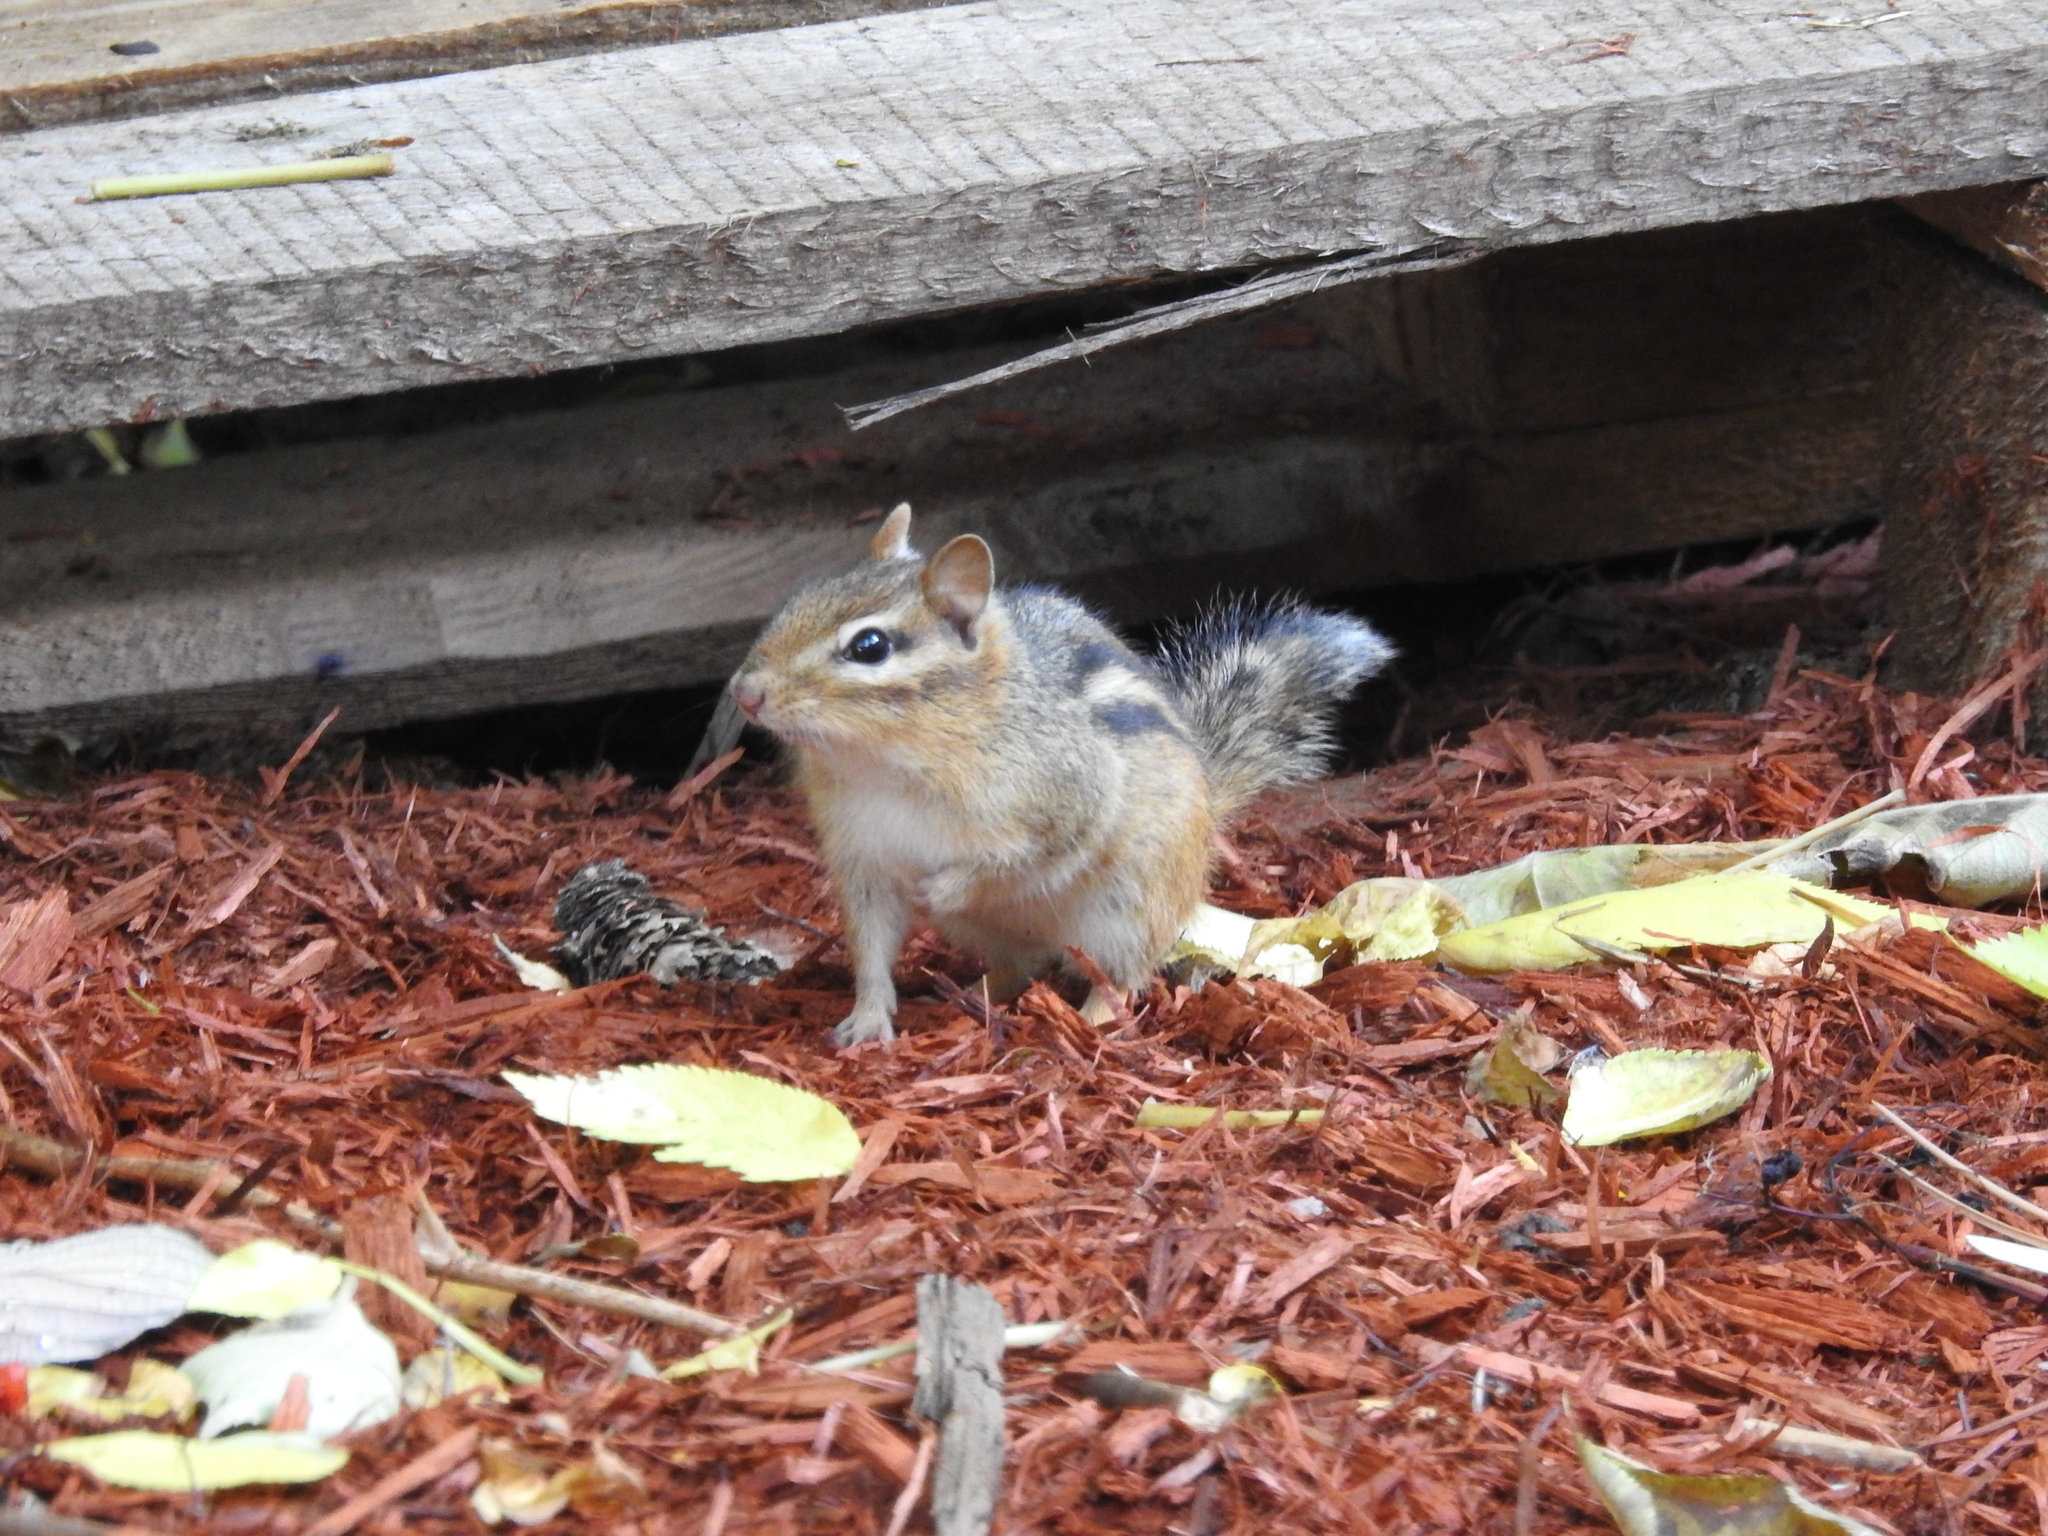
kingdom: Animalia
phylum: Chordata
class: Mammalia
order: Rodentia
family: Sciuridae
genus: Tamias
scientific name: Tamias striatus
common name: Eastern chipmunk
